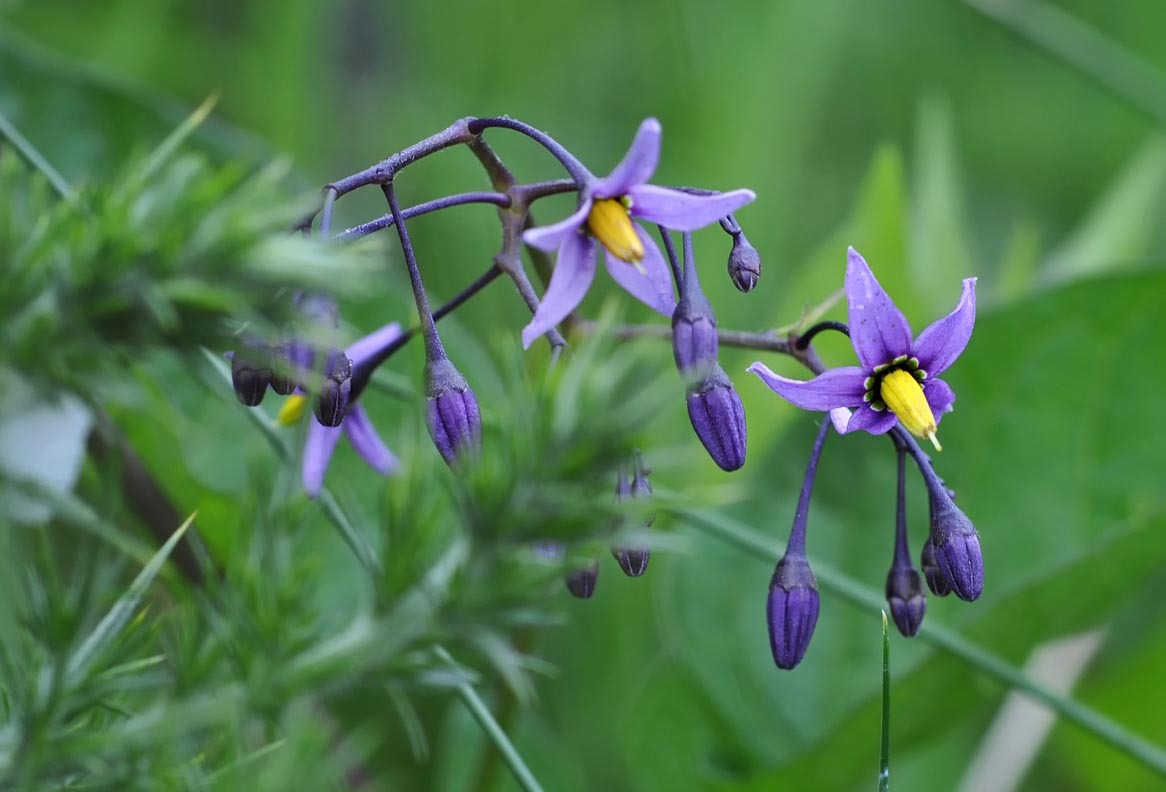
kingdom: Plantae
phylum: Tracheophyta
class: Magnoliopsida
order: Solanales
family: Solanaceae
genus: Solanum
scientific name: Solanum dulcamara
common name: Climbing nightshade
